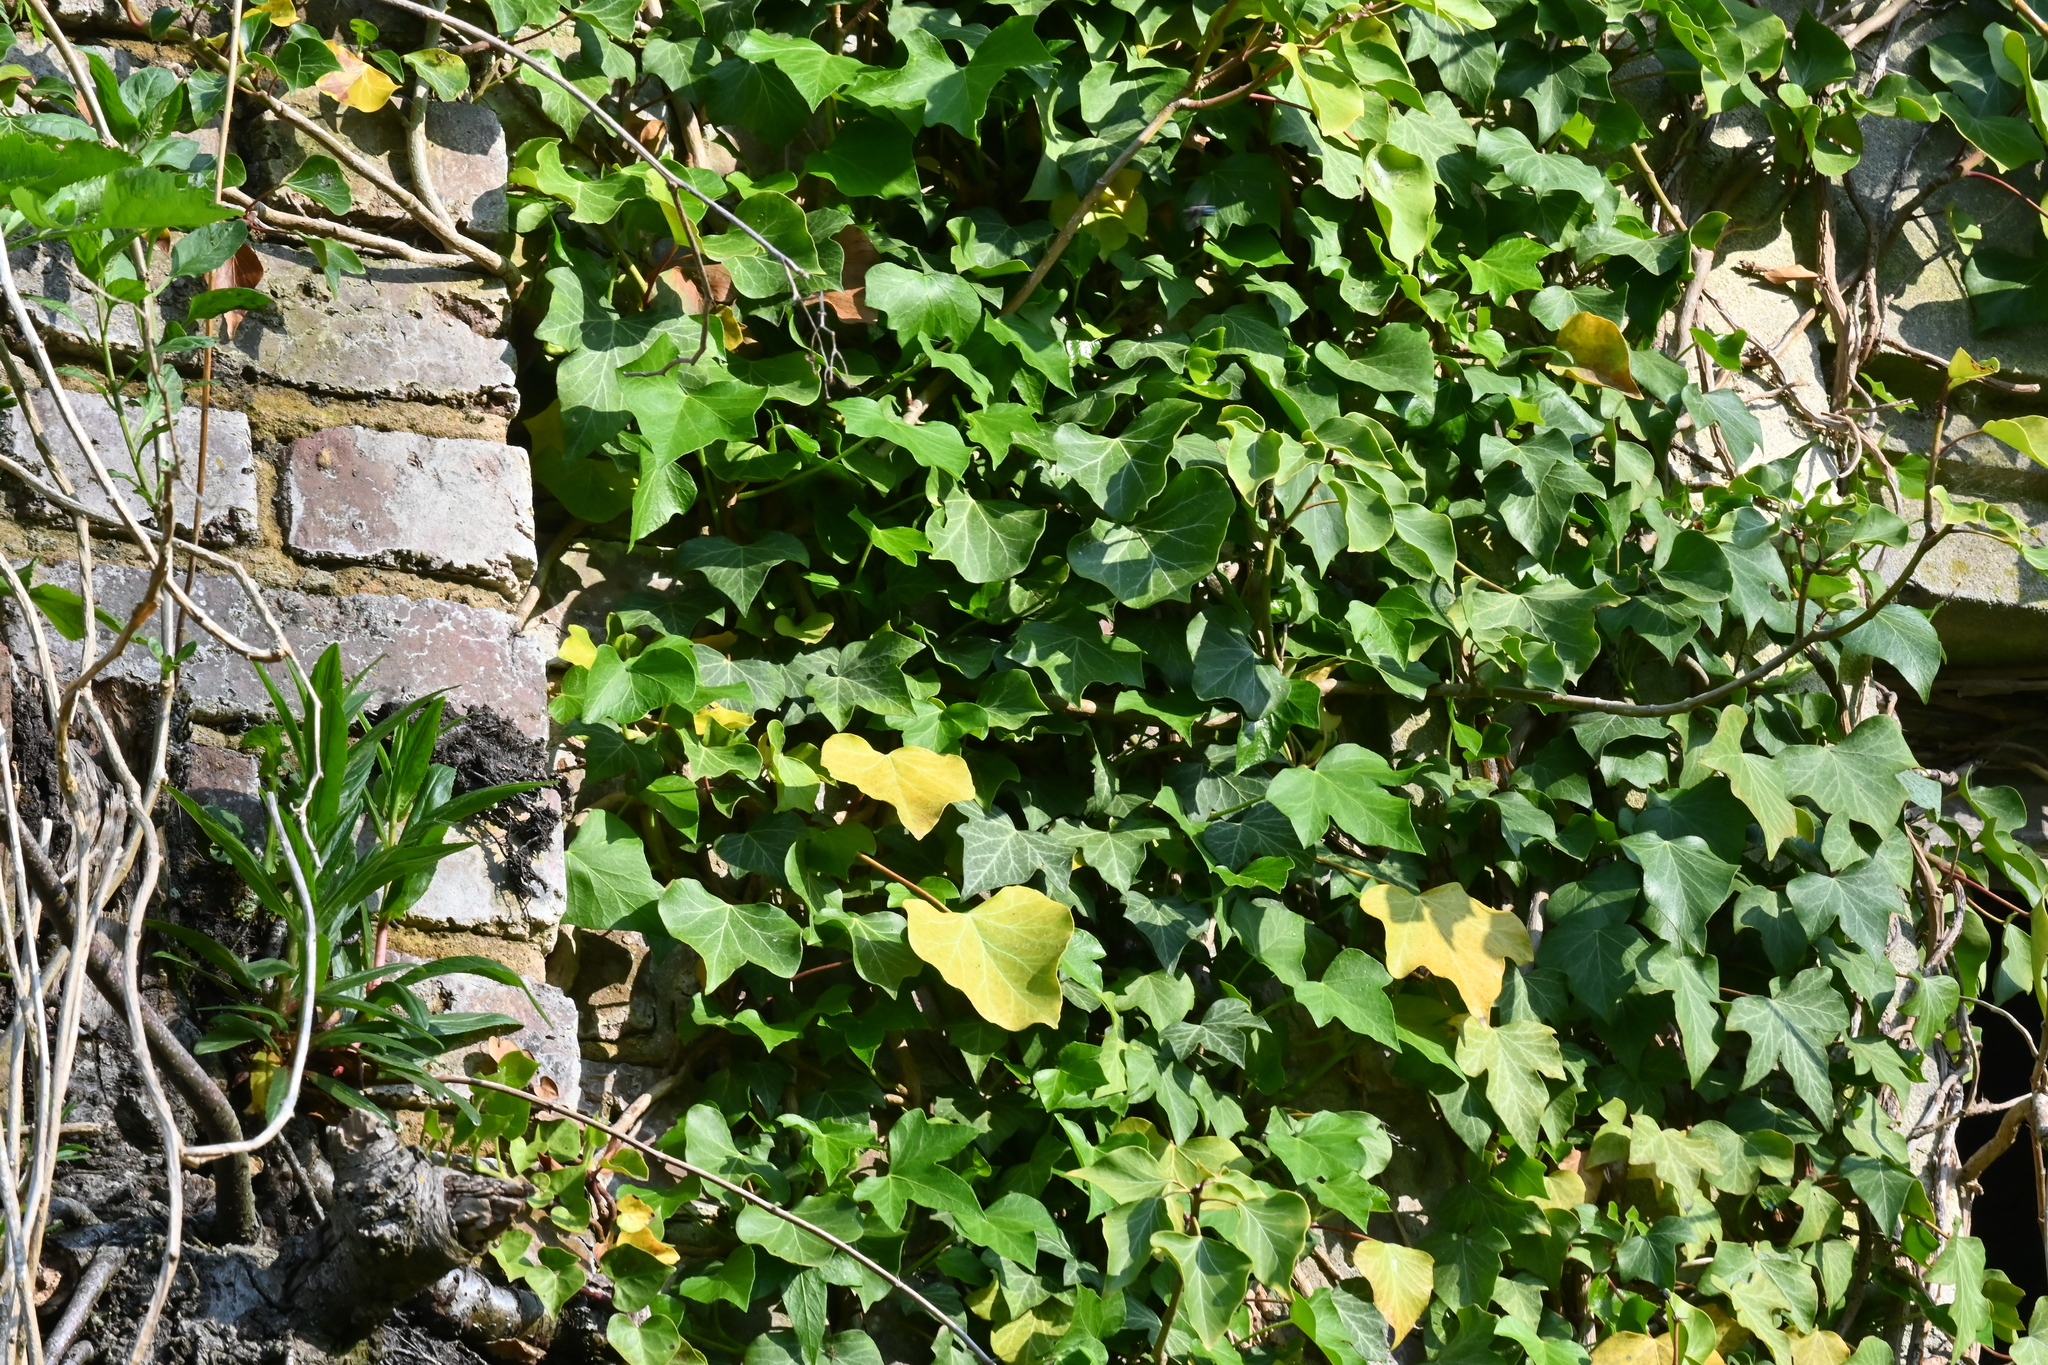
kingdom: Plantae
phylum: Tracheophyta
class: Magnoliopsida
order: Apiales
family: Araliaceae
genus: Hedera
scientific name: Hedera helix
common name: Ivy
